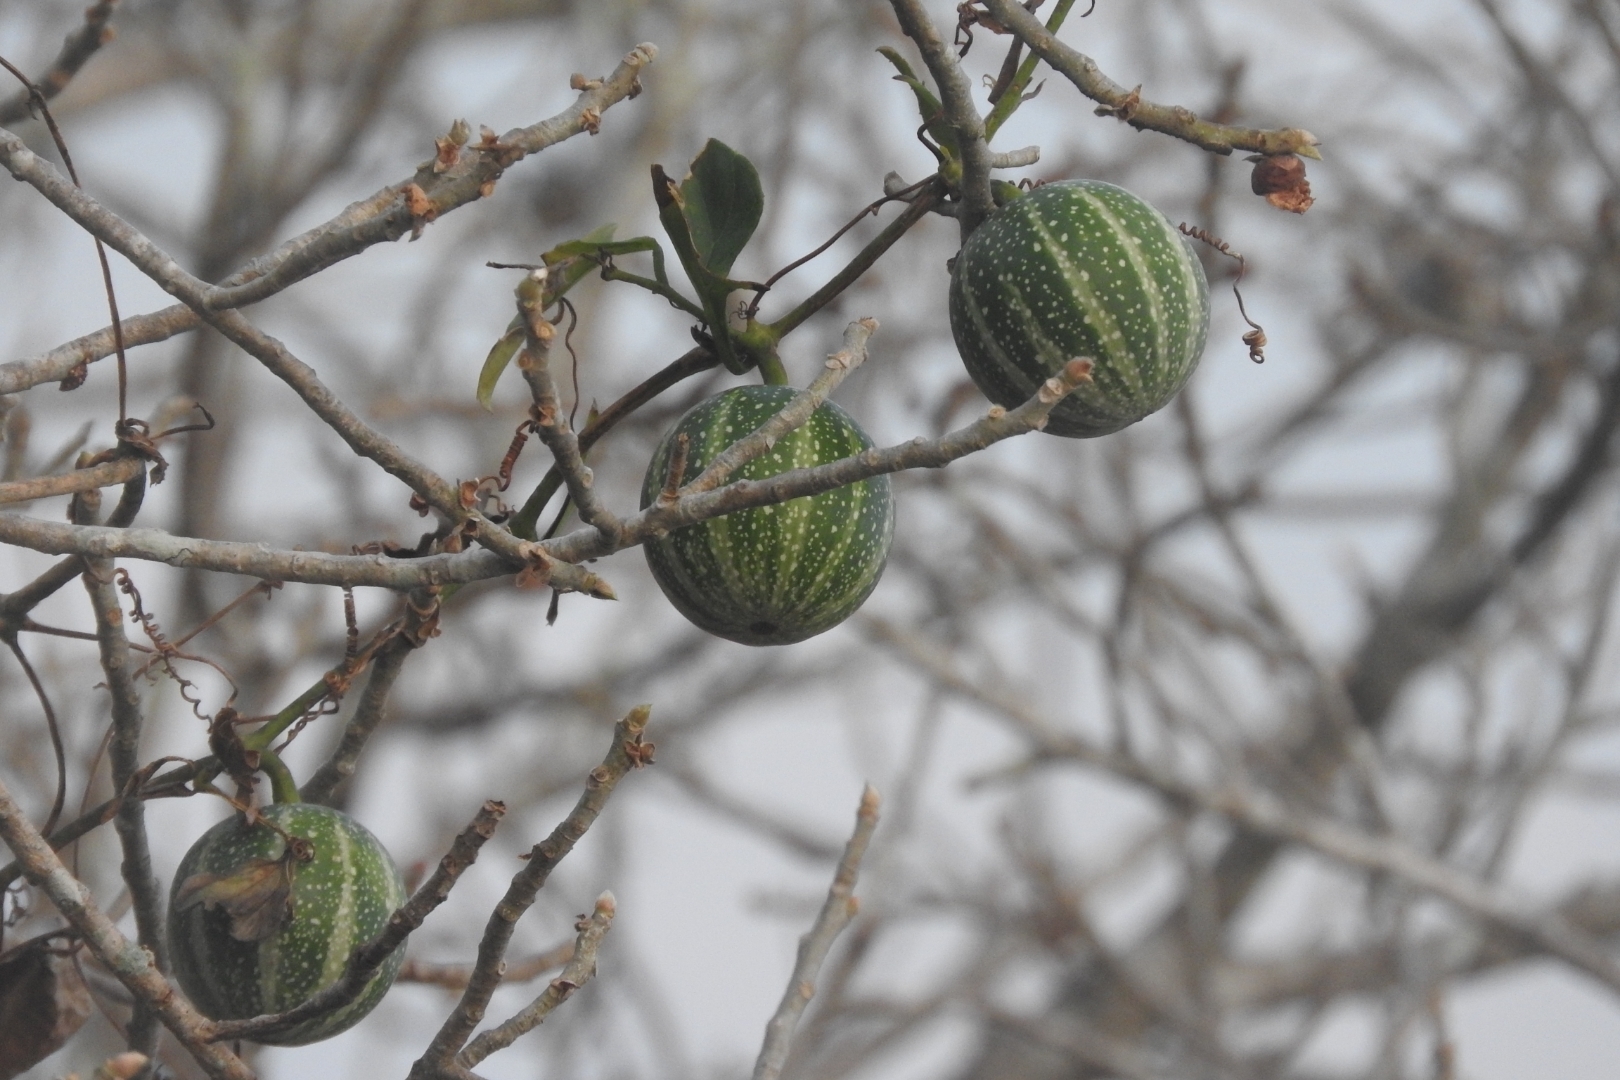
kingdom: Plantae
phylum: Tracheophyta
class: Magnoliopsida
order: Cucurbitales
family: Cucurbitaceae
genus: Cionosicys
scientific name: Cionosicys excisus
